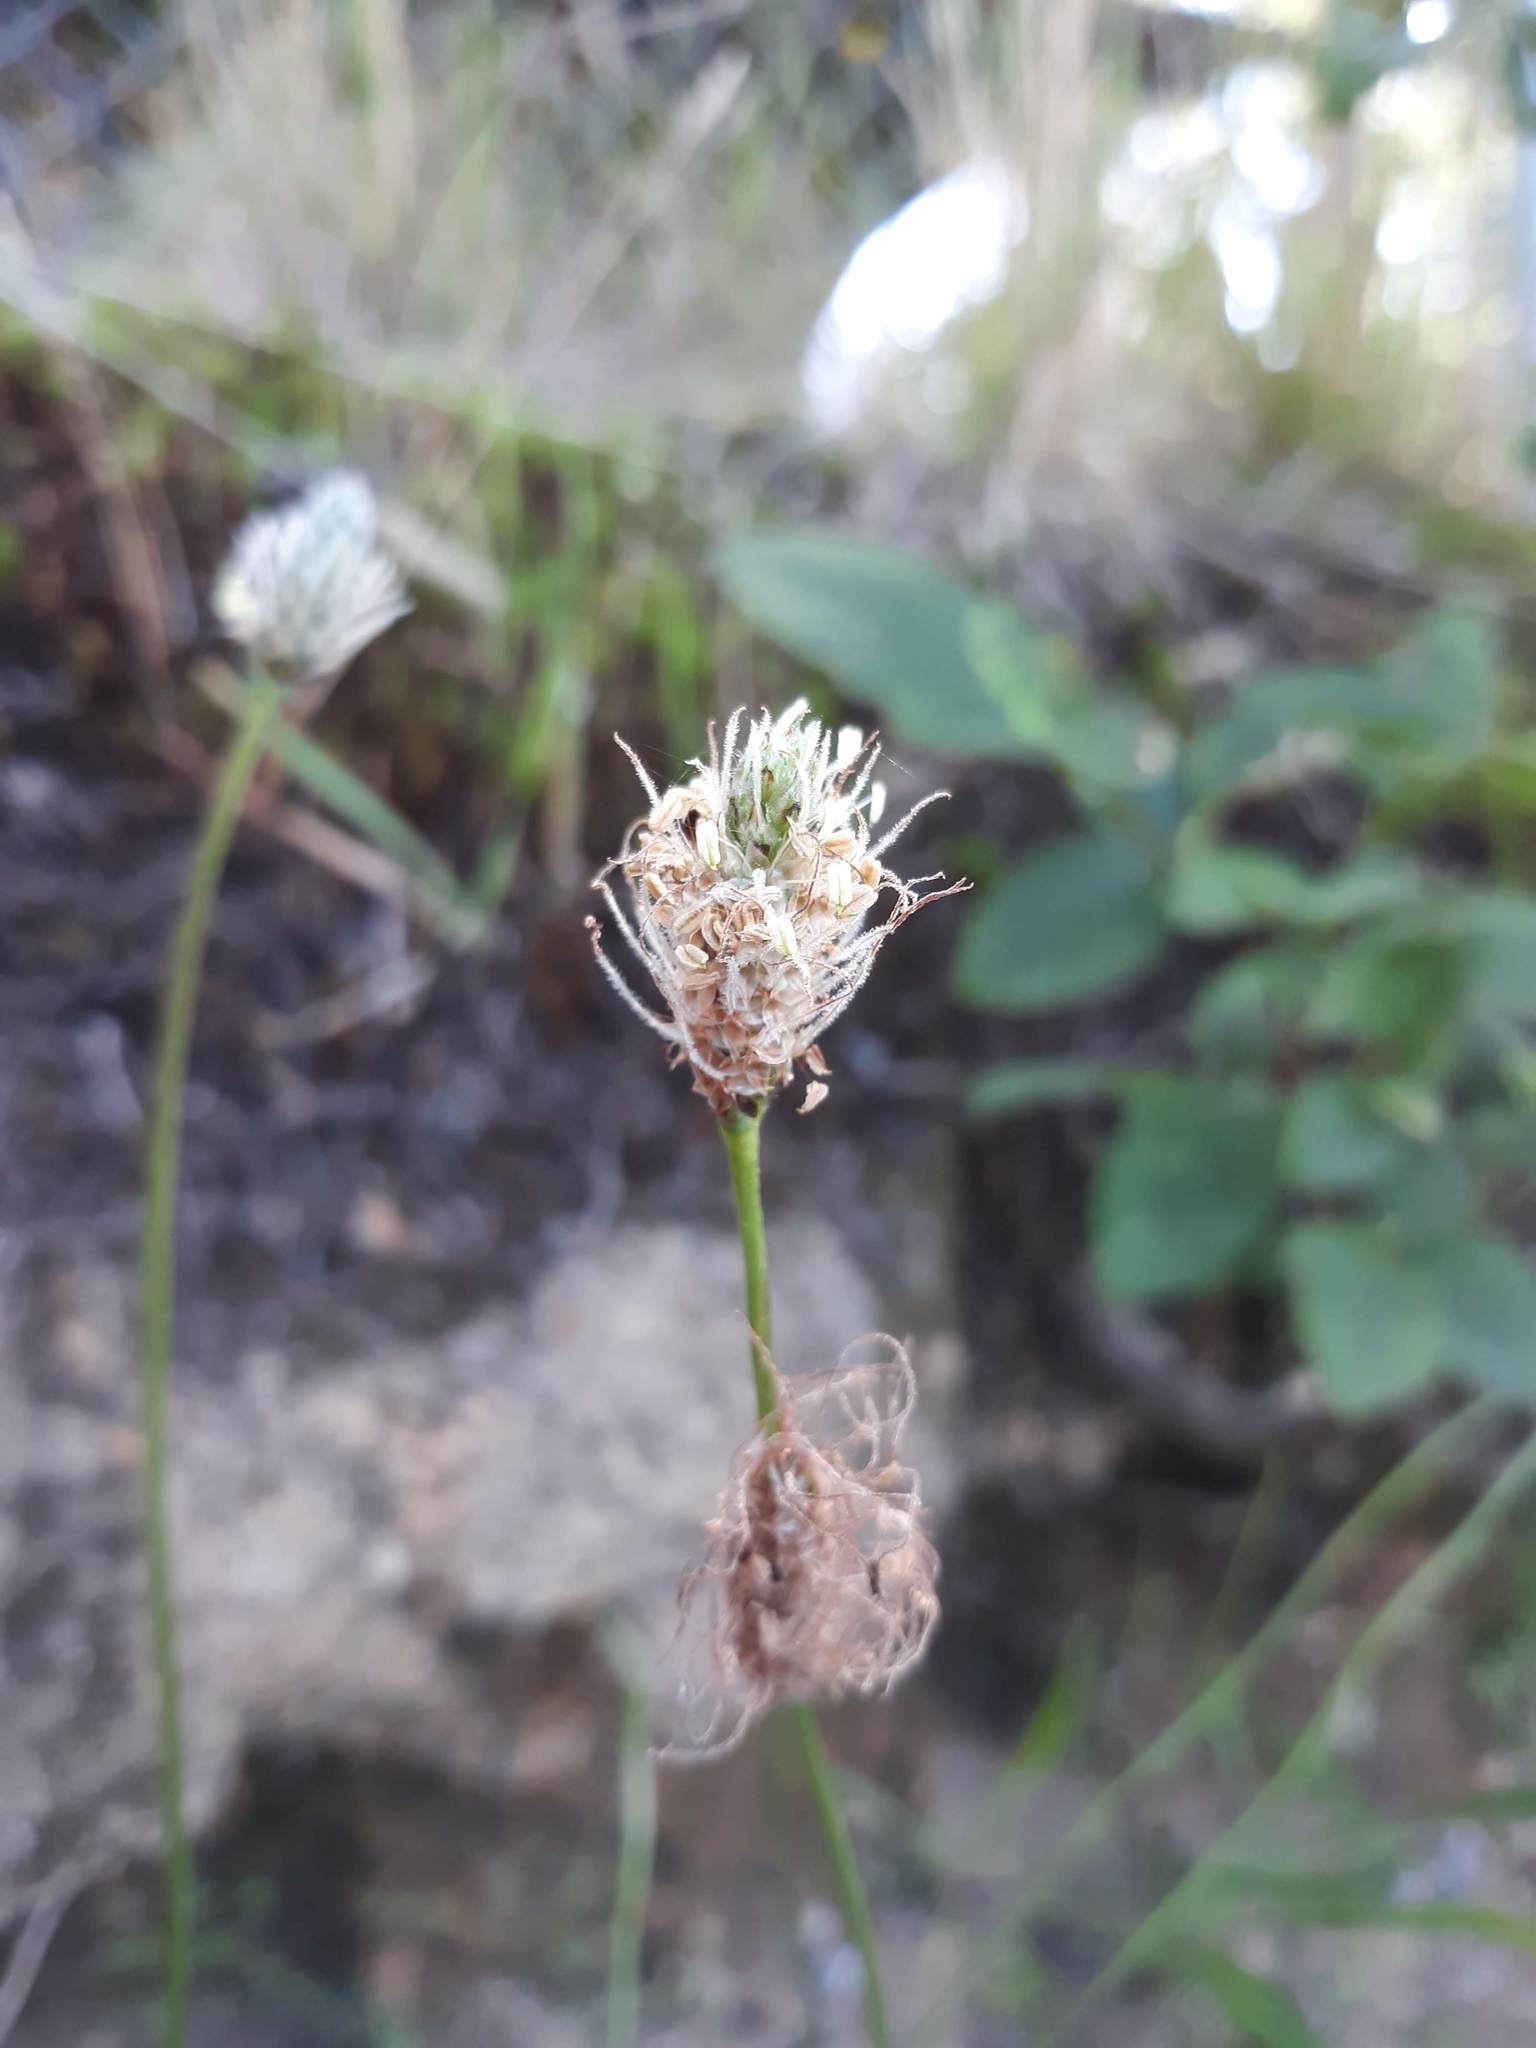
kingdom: Plantae
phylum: Tracheophyta
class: Magnoliopsida
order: Lamiales
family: Plantaginaceae
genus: Plantago
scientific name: Plantago lanceolata
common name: Ribwort plantain
